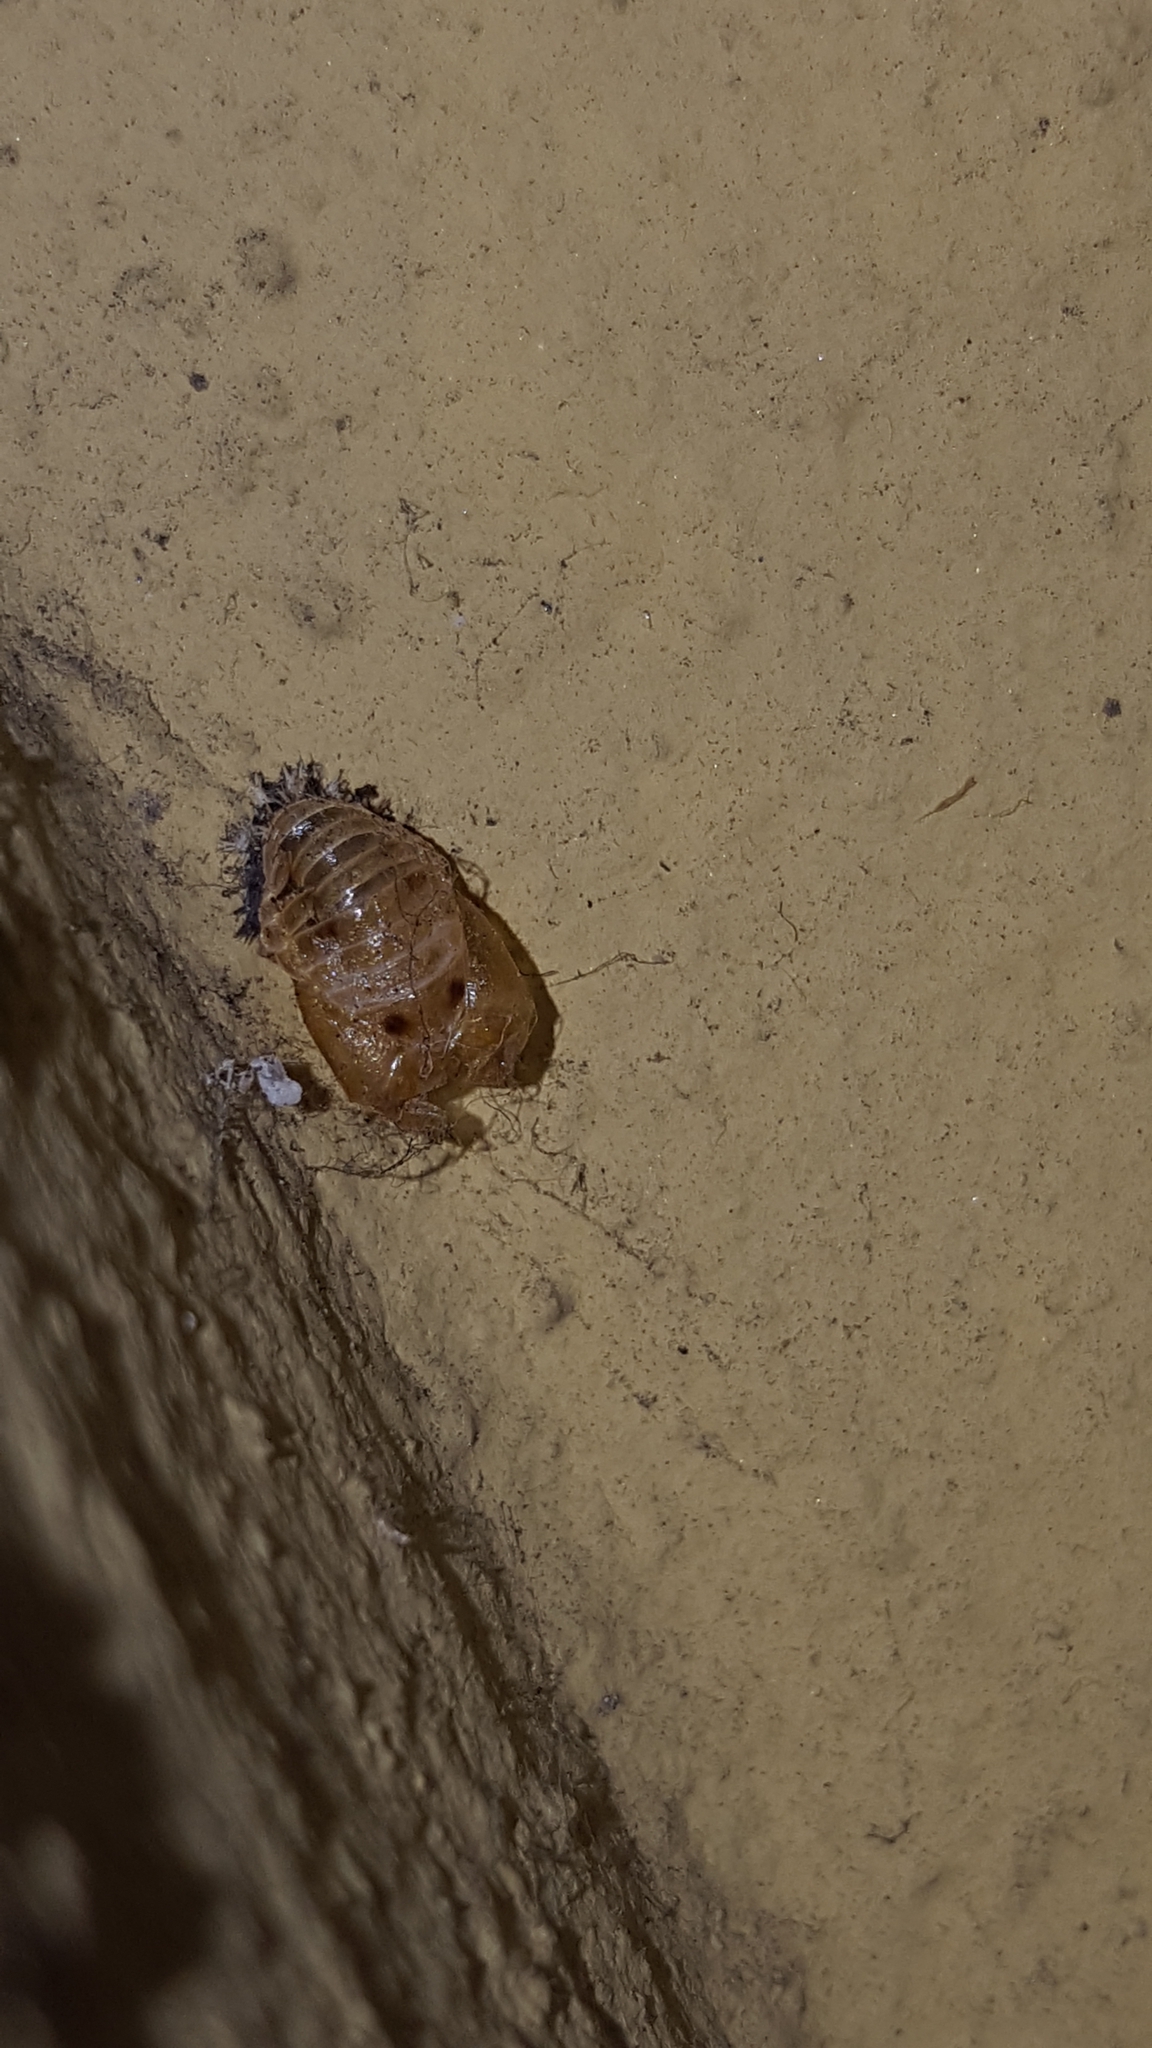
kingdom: Animalia
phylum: Arthropoda
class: Insecta
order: Coleoptera
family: Coccinellidae
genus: Harmonia
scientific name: Harmonia axyridis
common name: Harlequin ladybird
